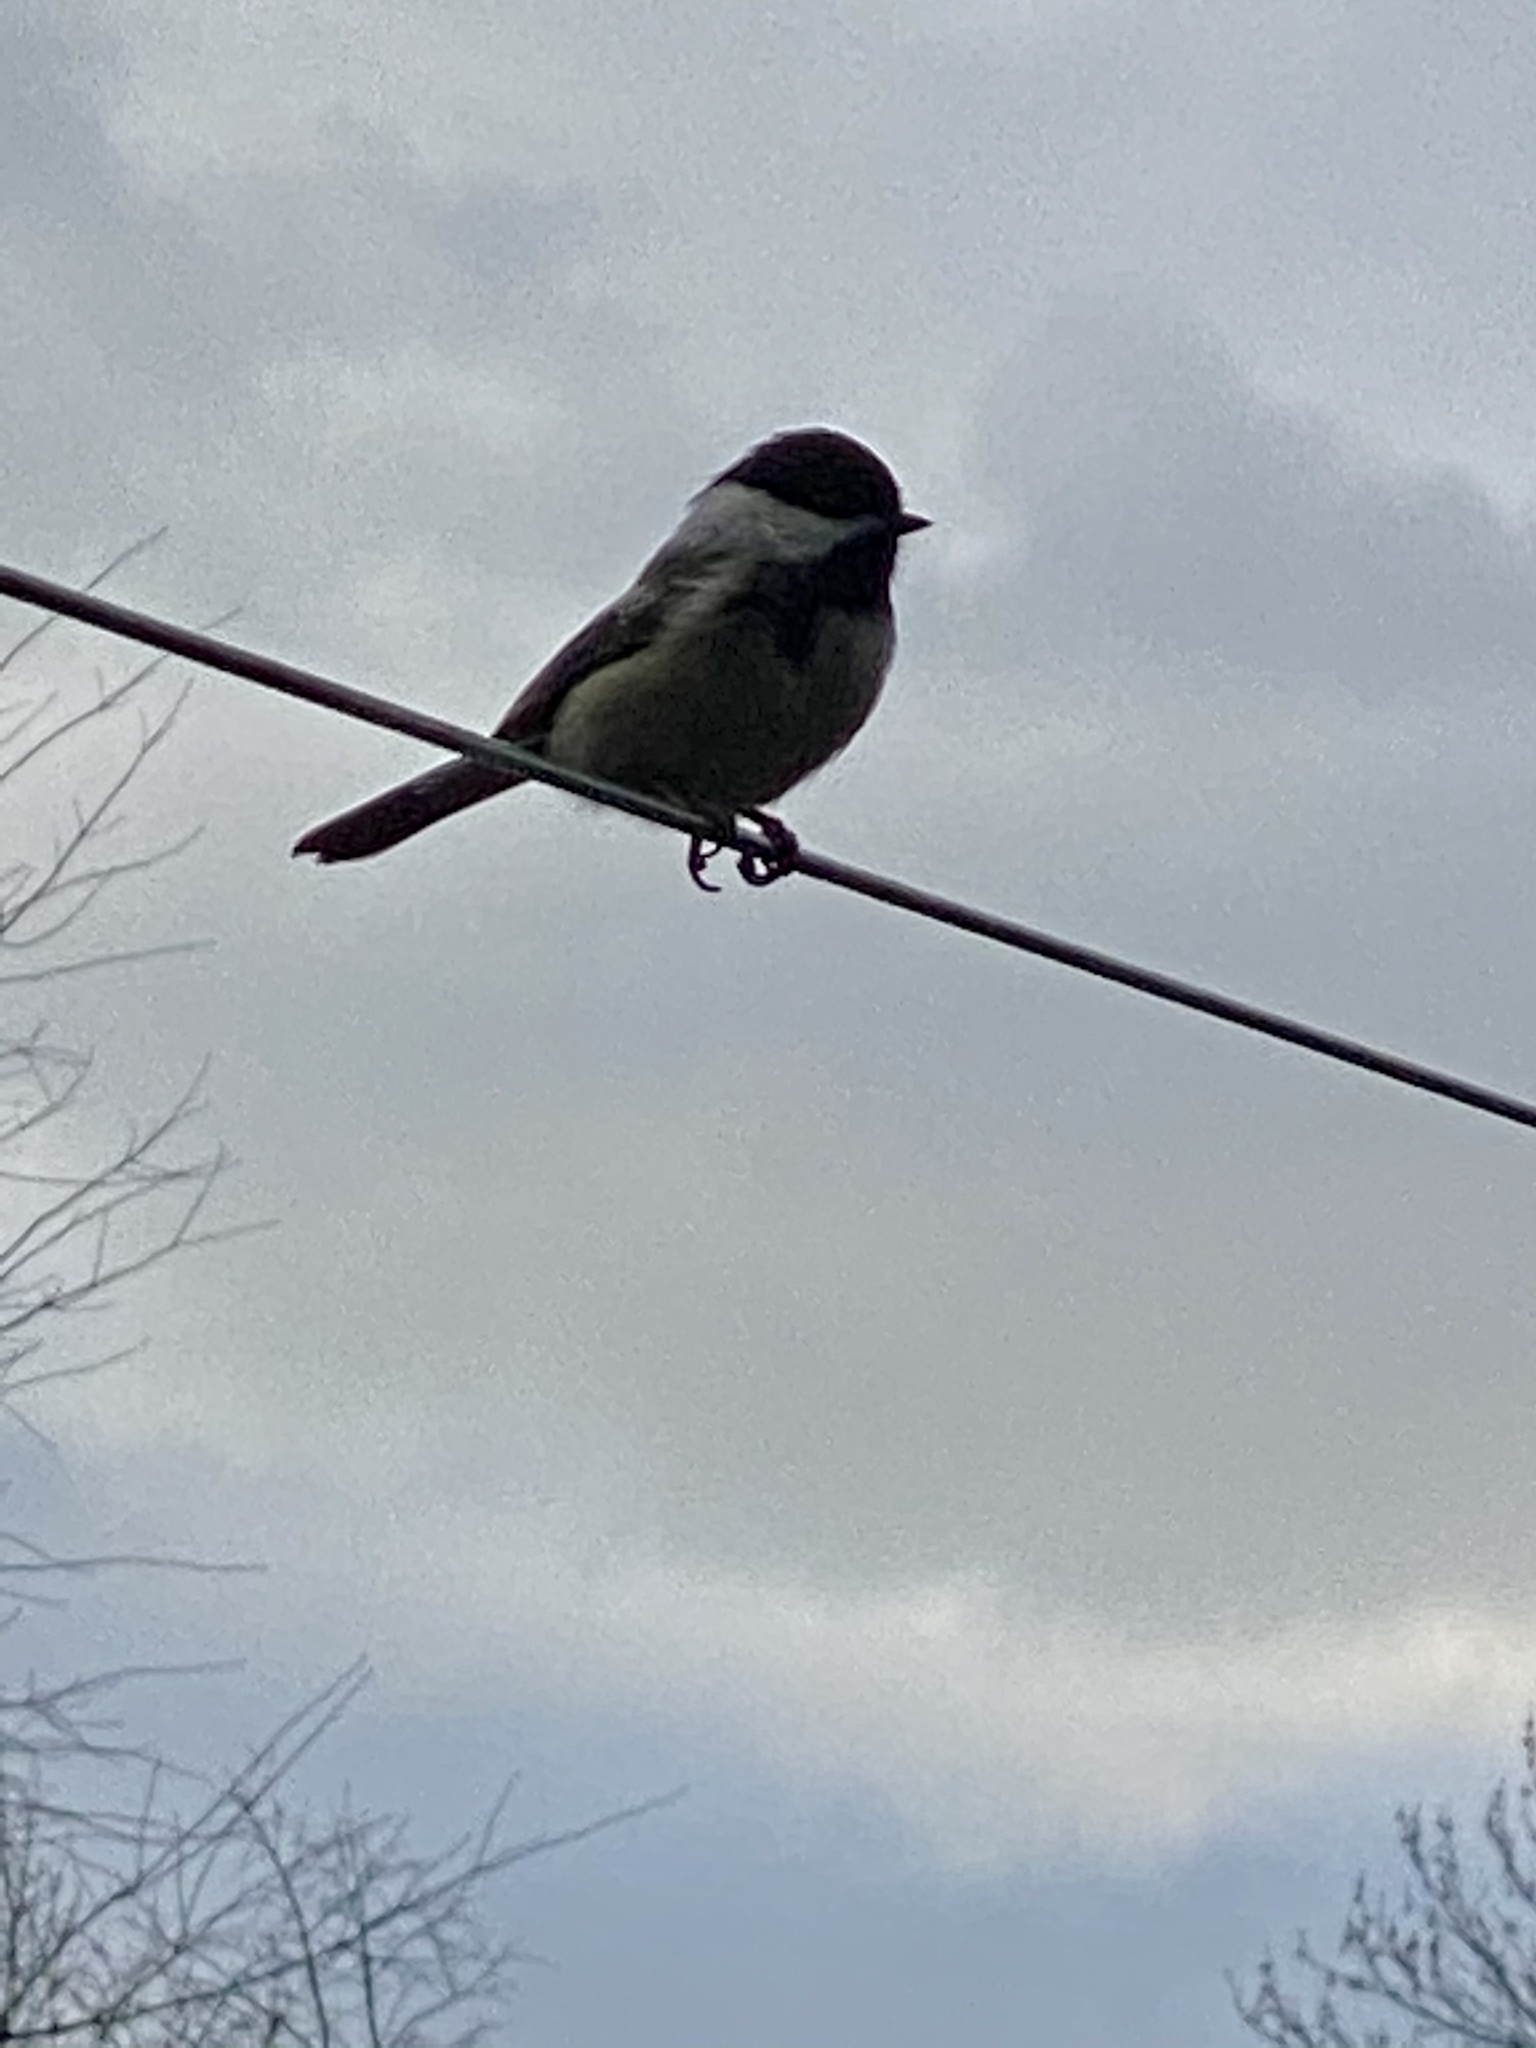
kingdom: Animalia
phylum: Chordata
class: Aves
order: Passeriformes
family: Paridae
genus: Poecile
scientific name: Poecile atricapillus
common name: Black-capped chickadee
